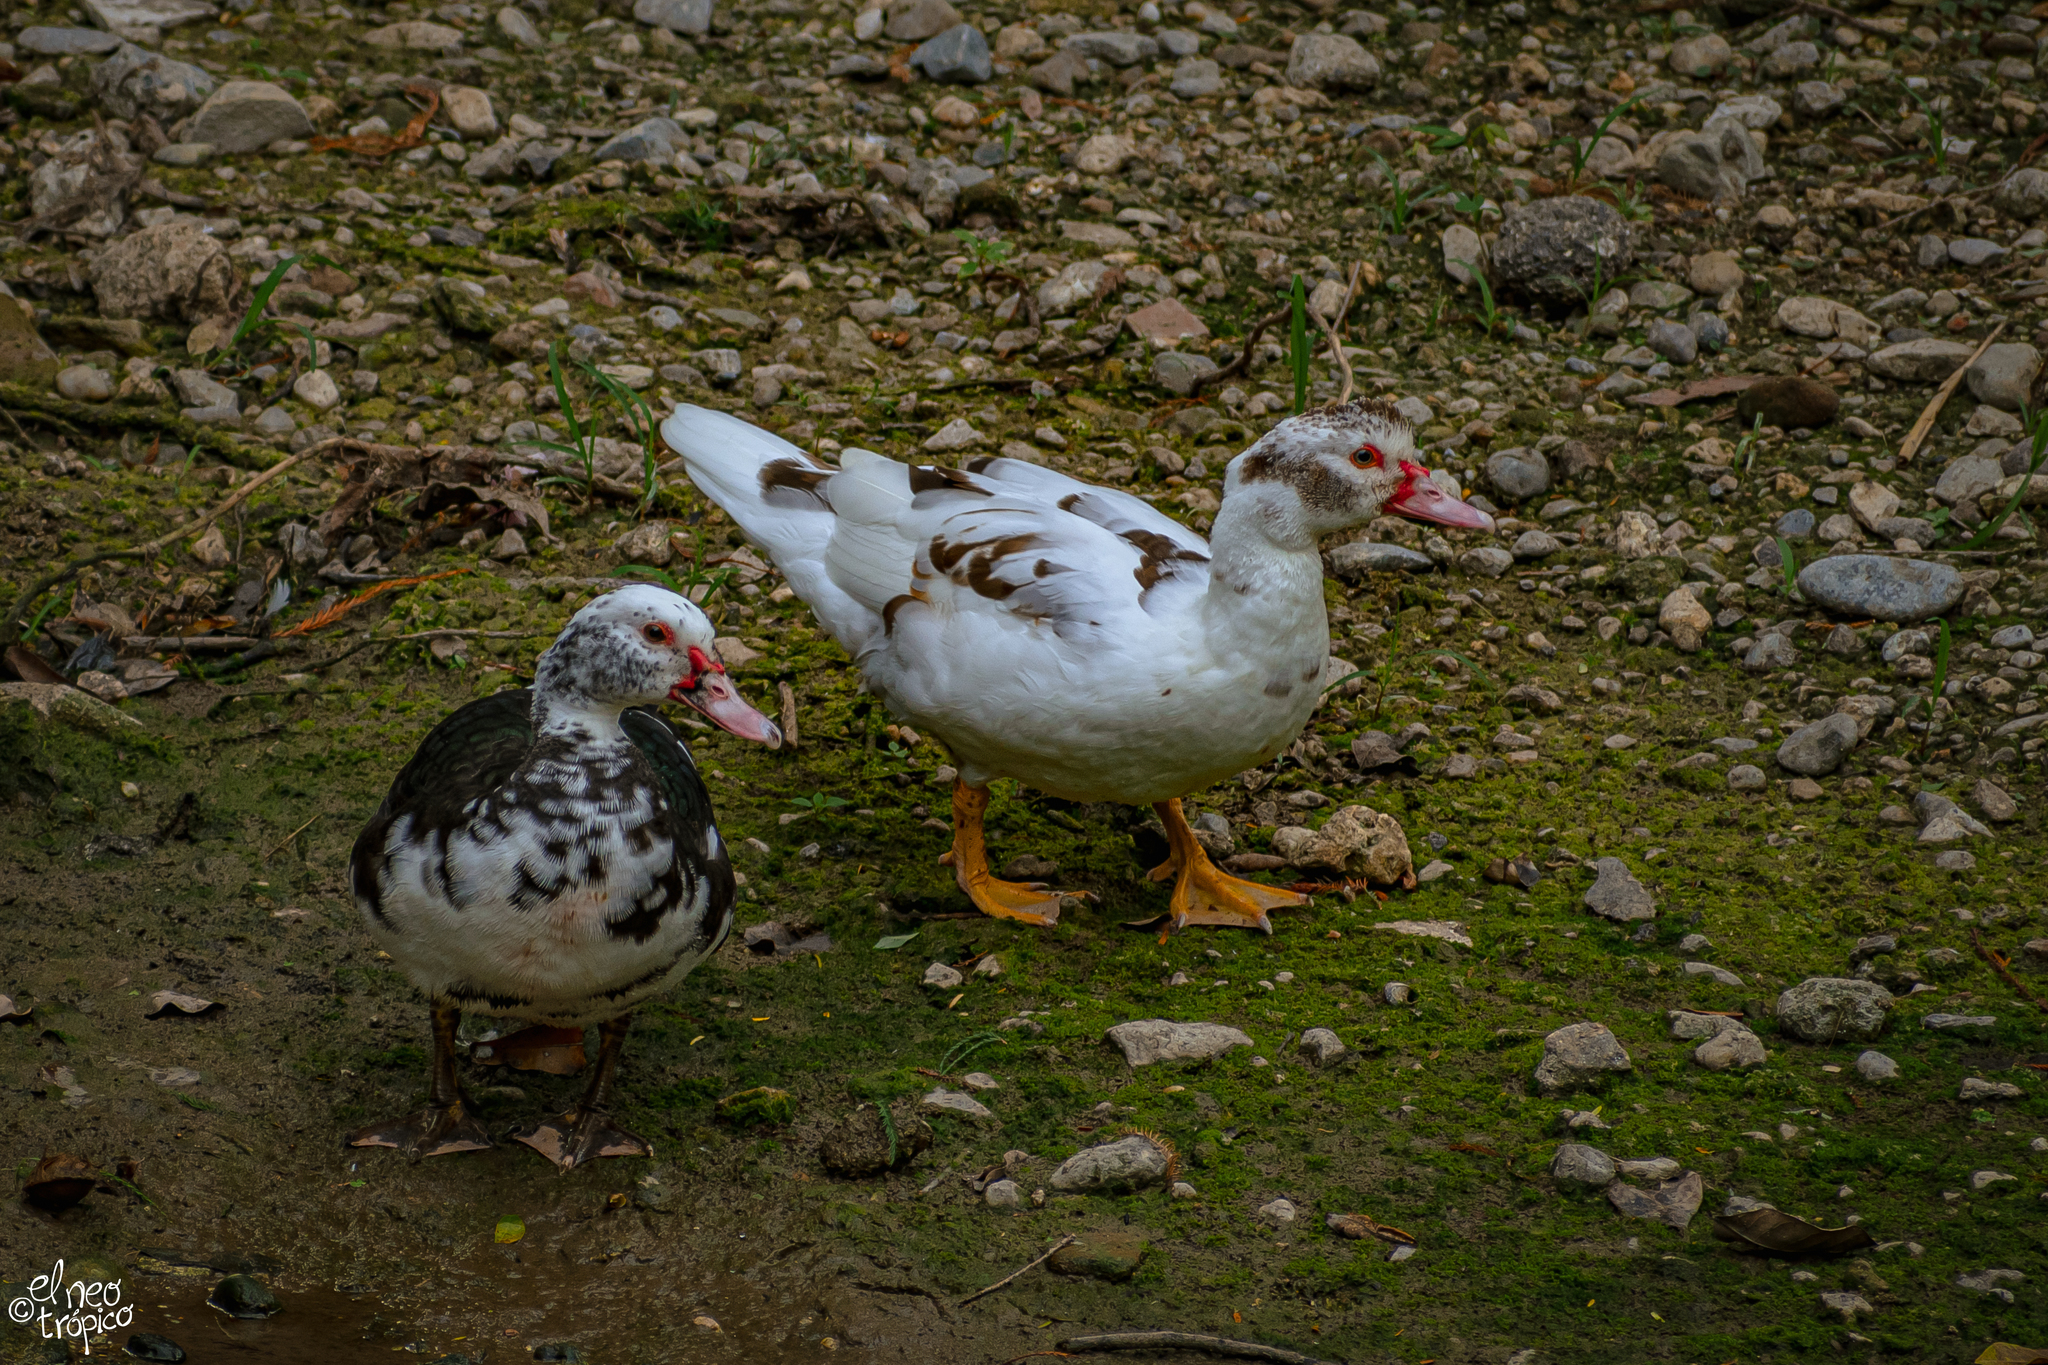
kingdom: Animalia
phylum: Chordata
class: Aves
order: Anseriformes
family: Anatidae
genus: Cairina
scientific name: Cairina moschata
